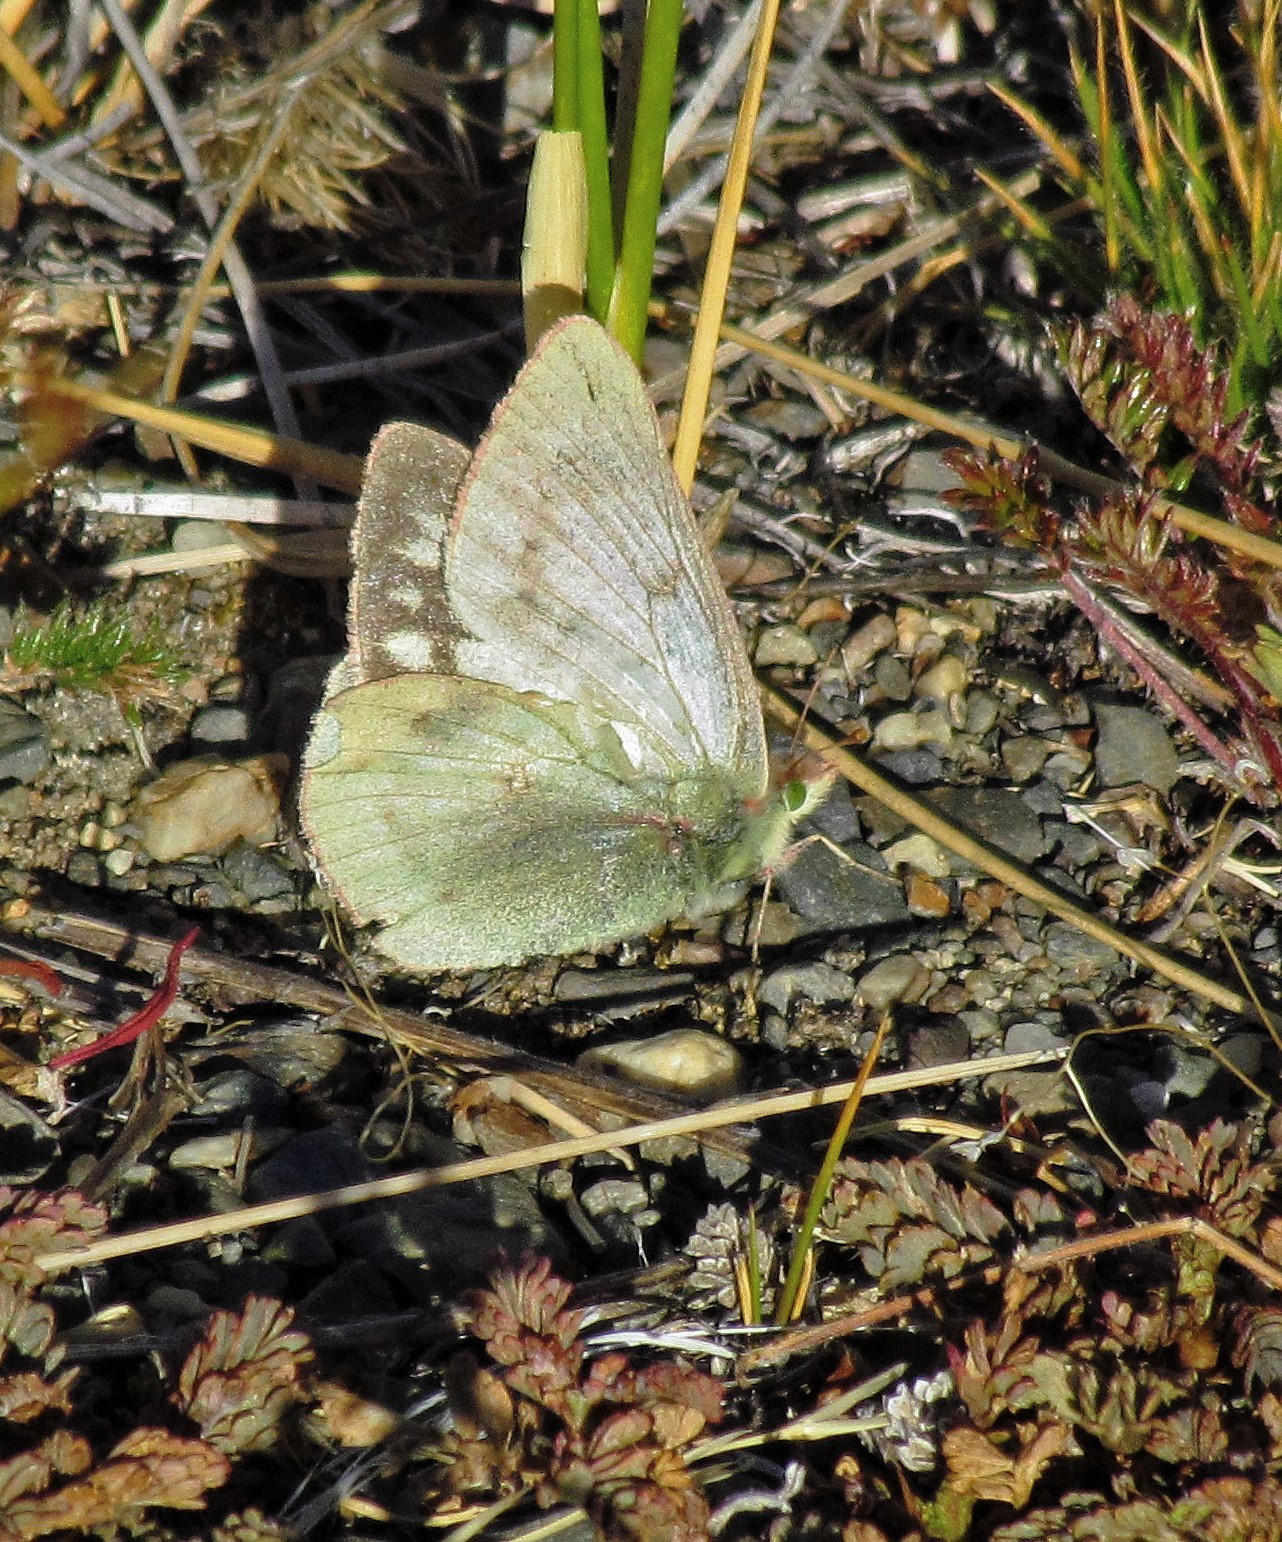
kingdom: Animalia
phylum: Arthropoda
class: Insecta
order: Lepidoptera
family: Pieridae
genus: Colias
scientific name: Colias vauthierii
